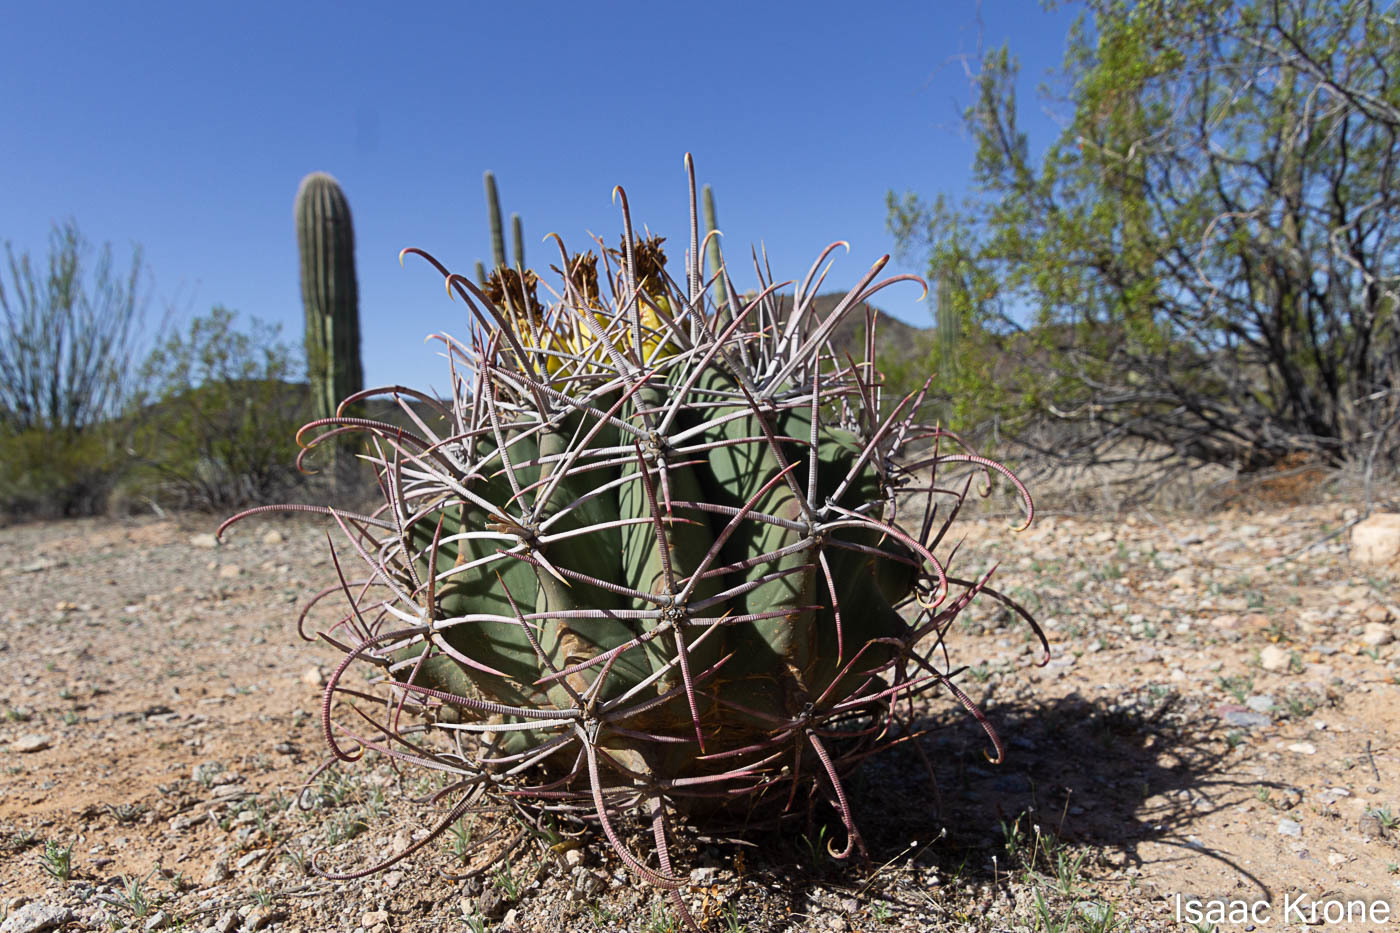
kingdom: Plantae
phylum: Tracheophyta
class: Magnoliopsida
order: Caryophyllales
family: Cactaceae
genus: Ferocactus
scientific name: Ferocactus emoryi
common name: Emory's barrel cactus
